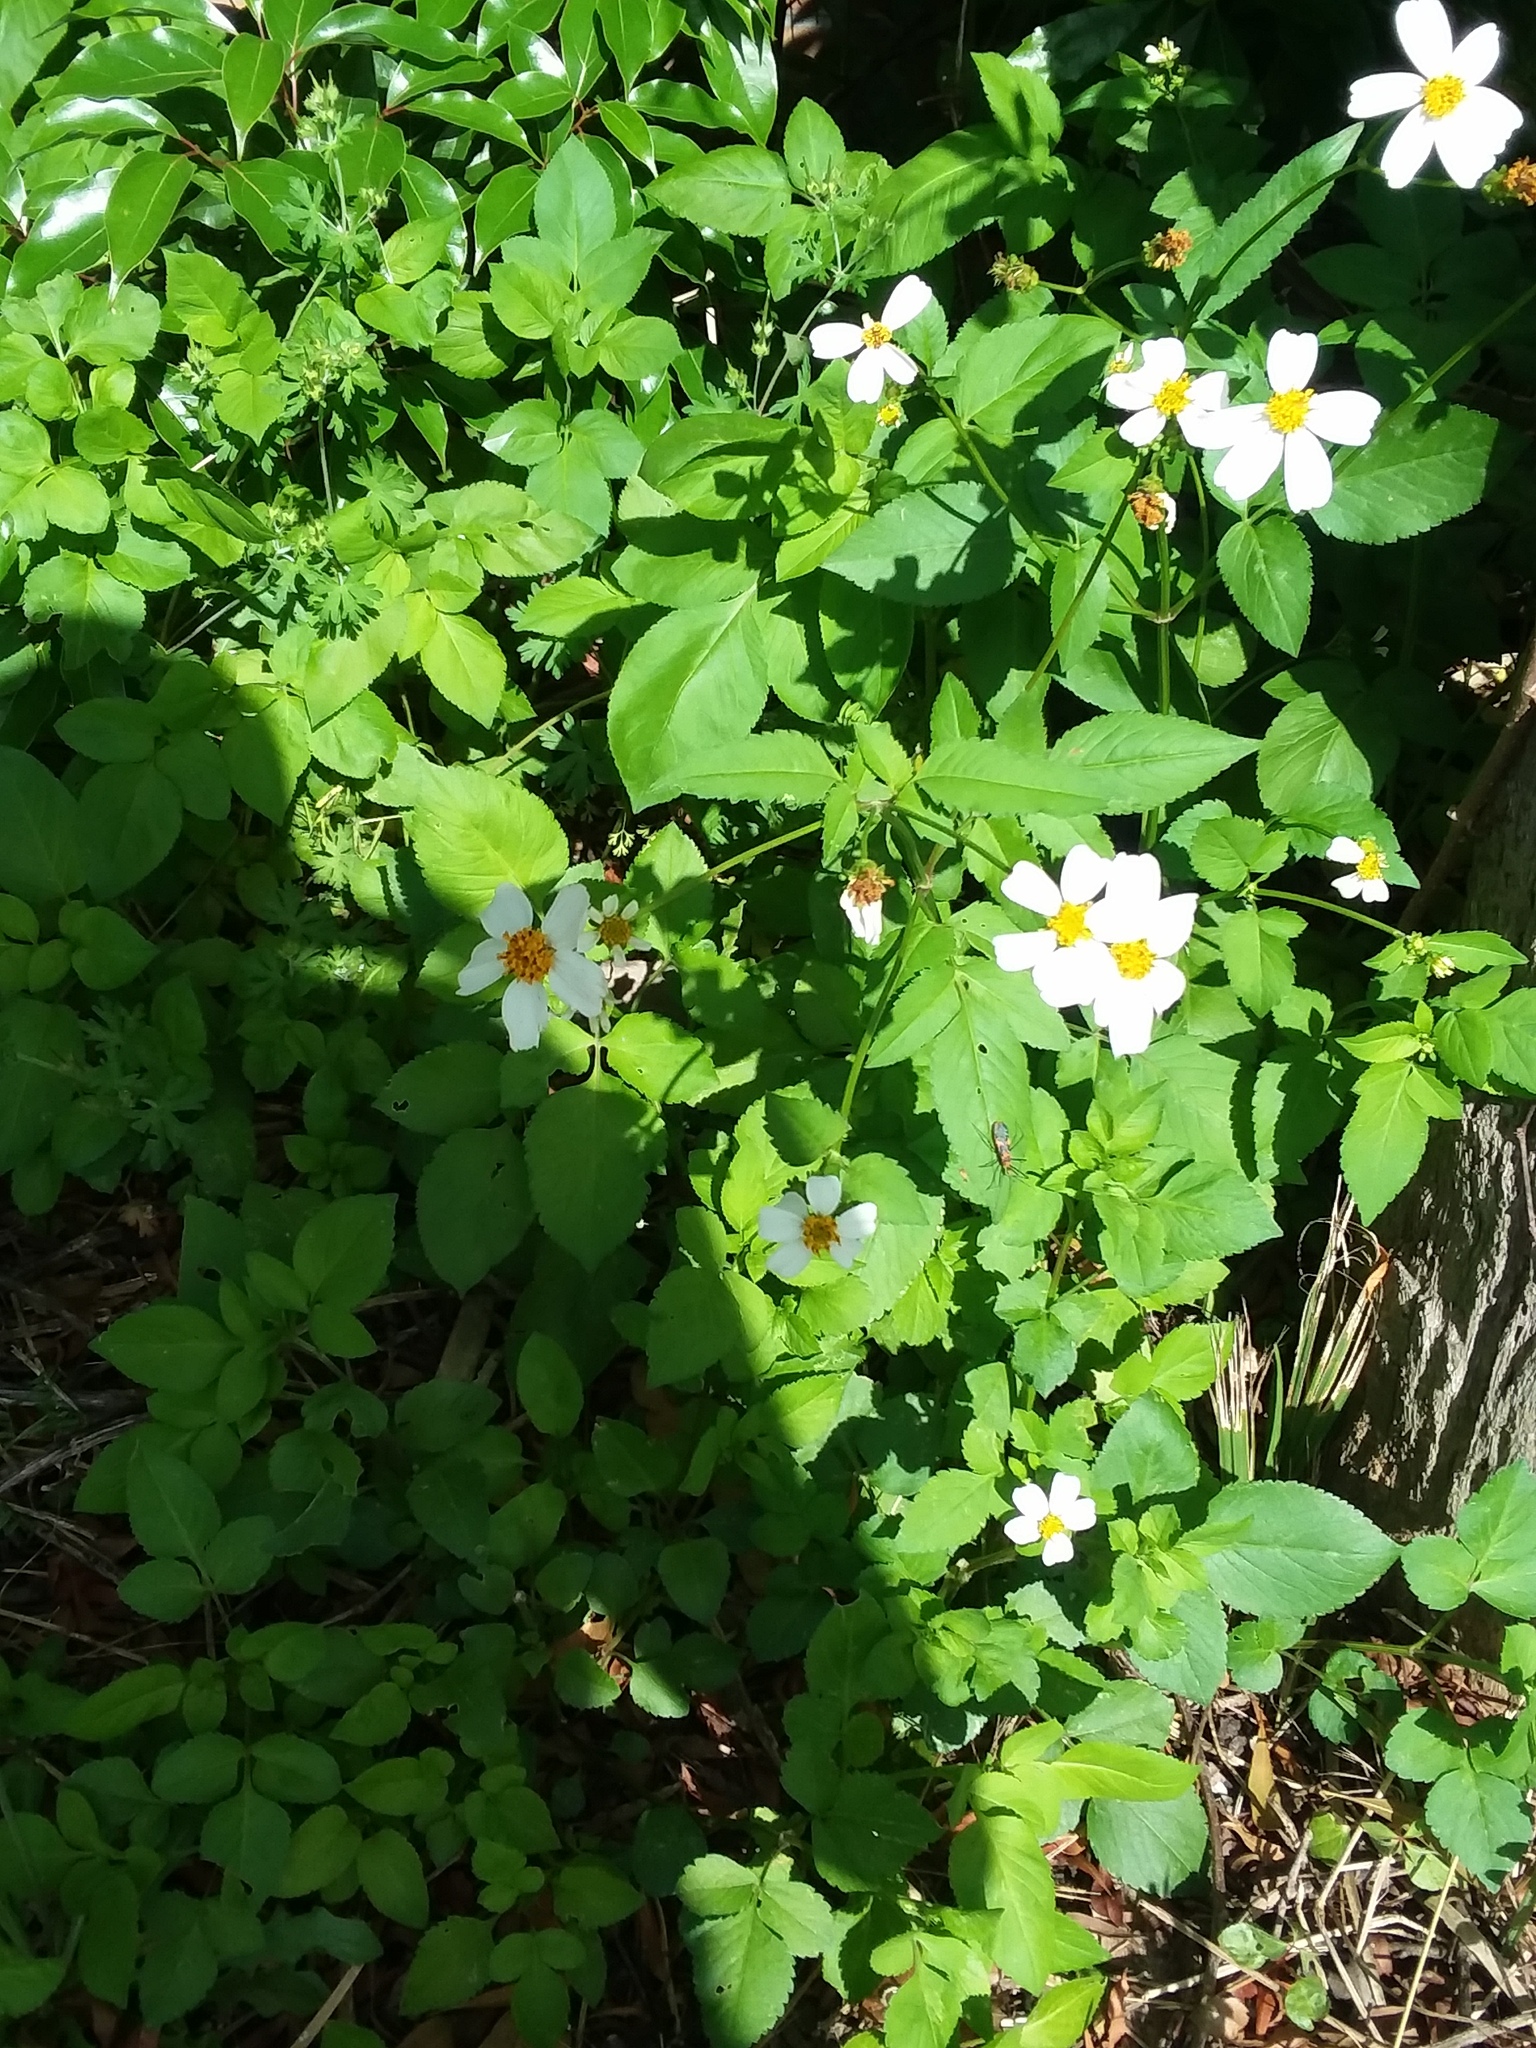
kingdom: Plantae
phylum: Tracheophyta
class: Magnoliopsida
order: Asterales
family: Asteraceae
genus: Bidens
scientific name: Bidens alba
